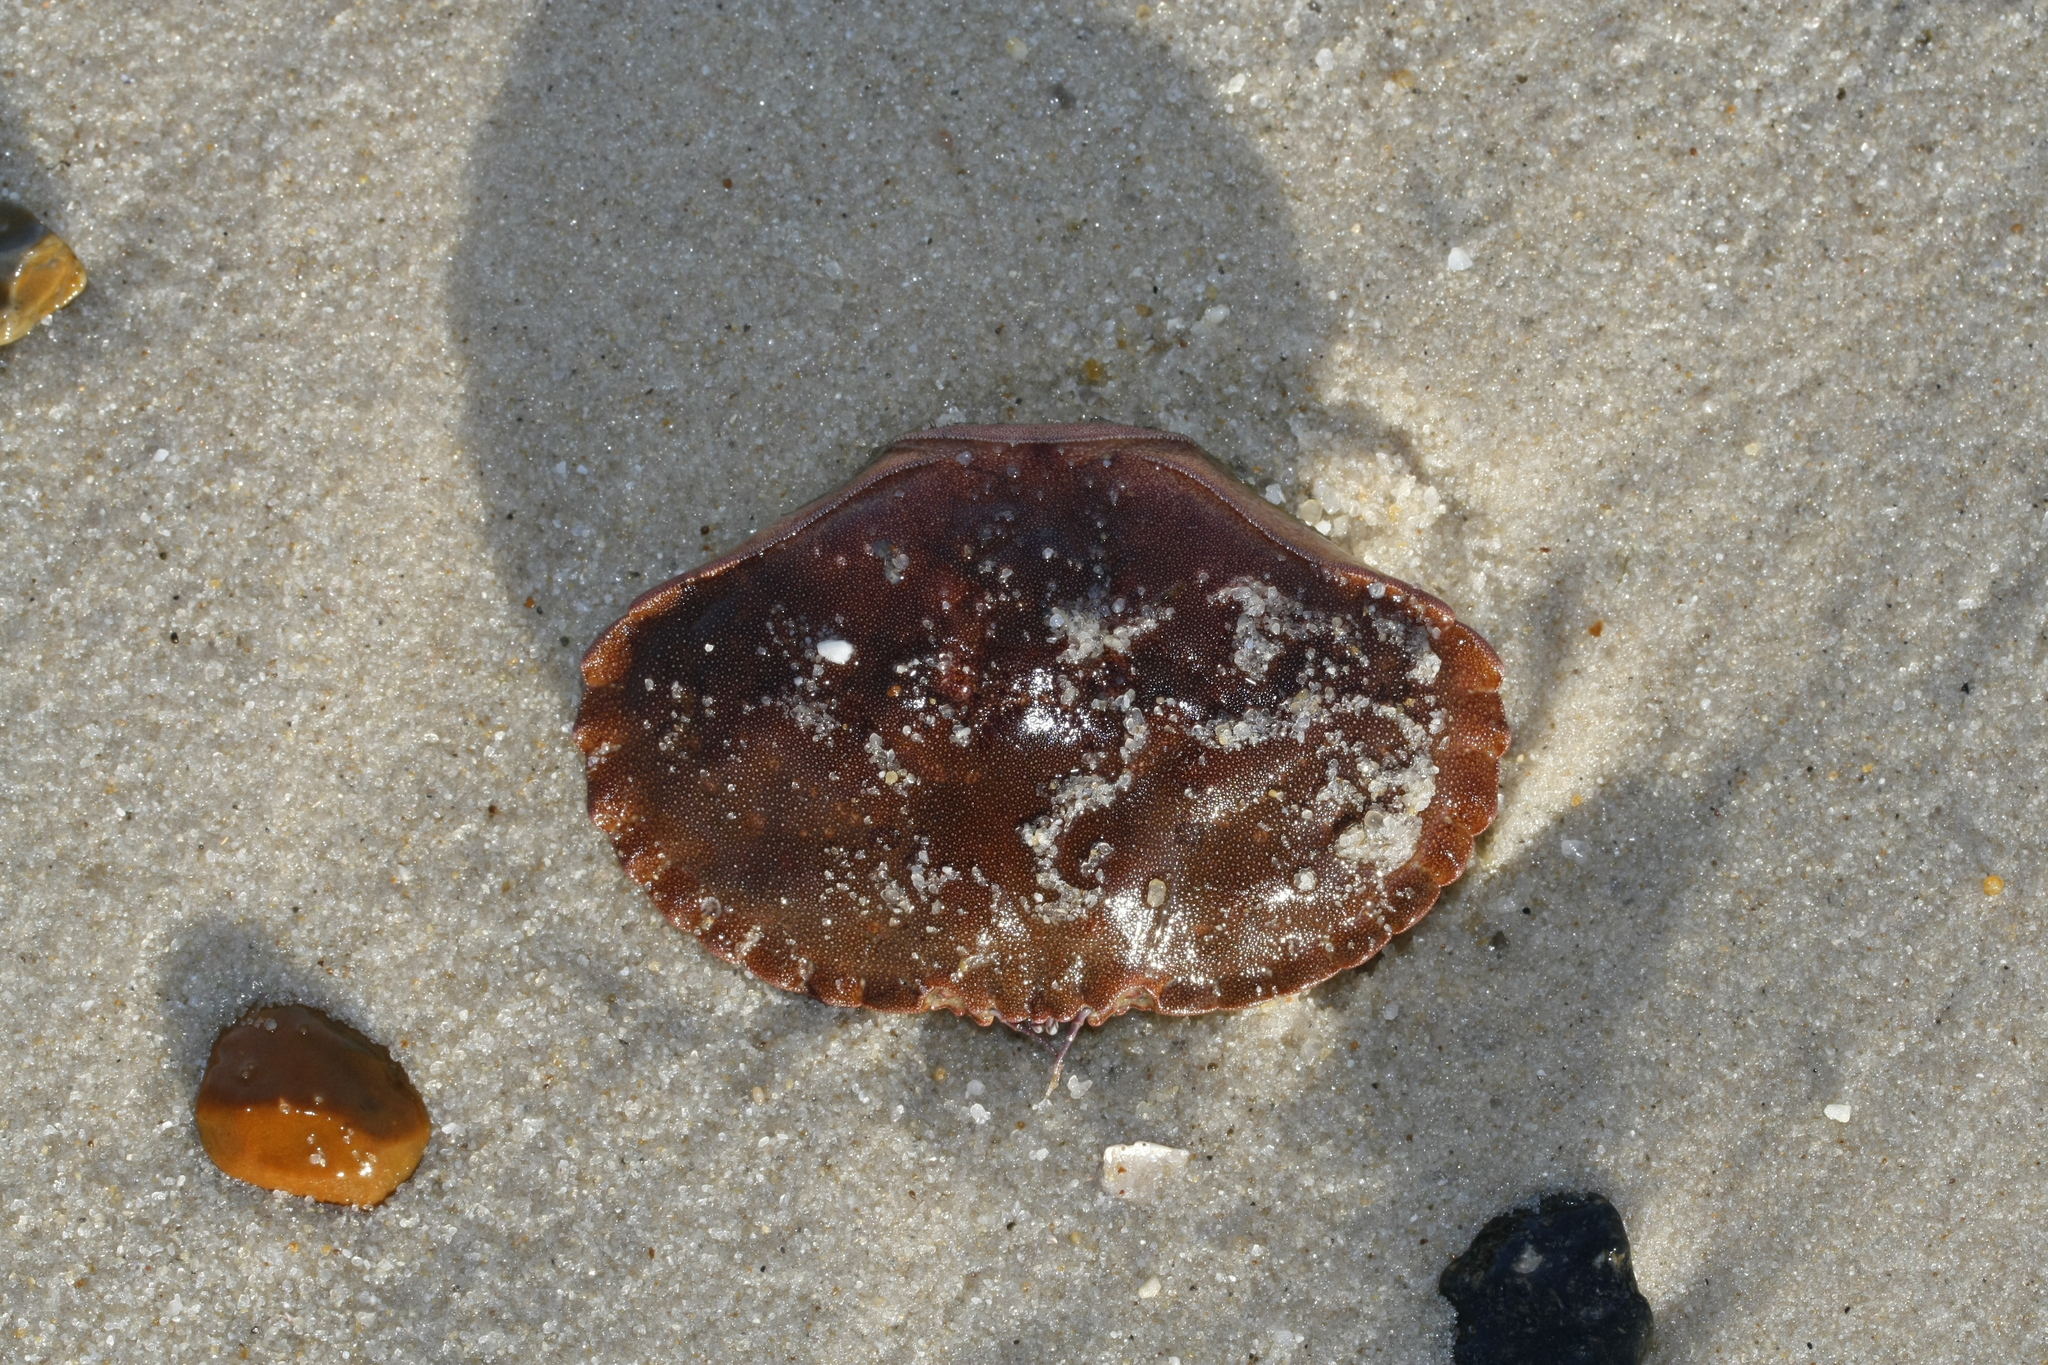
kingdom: Animalia
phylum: Arthropoda
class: Malacostraca
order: Decapoda
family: Cancridae
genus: Cancer
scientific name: Cancer pagurus
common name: Edible crab
